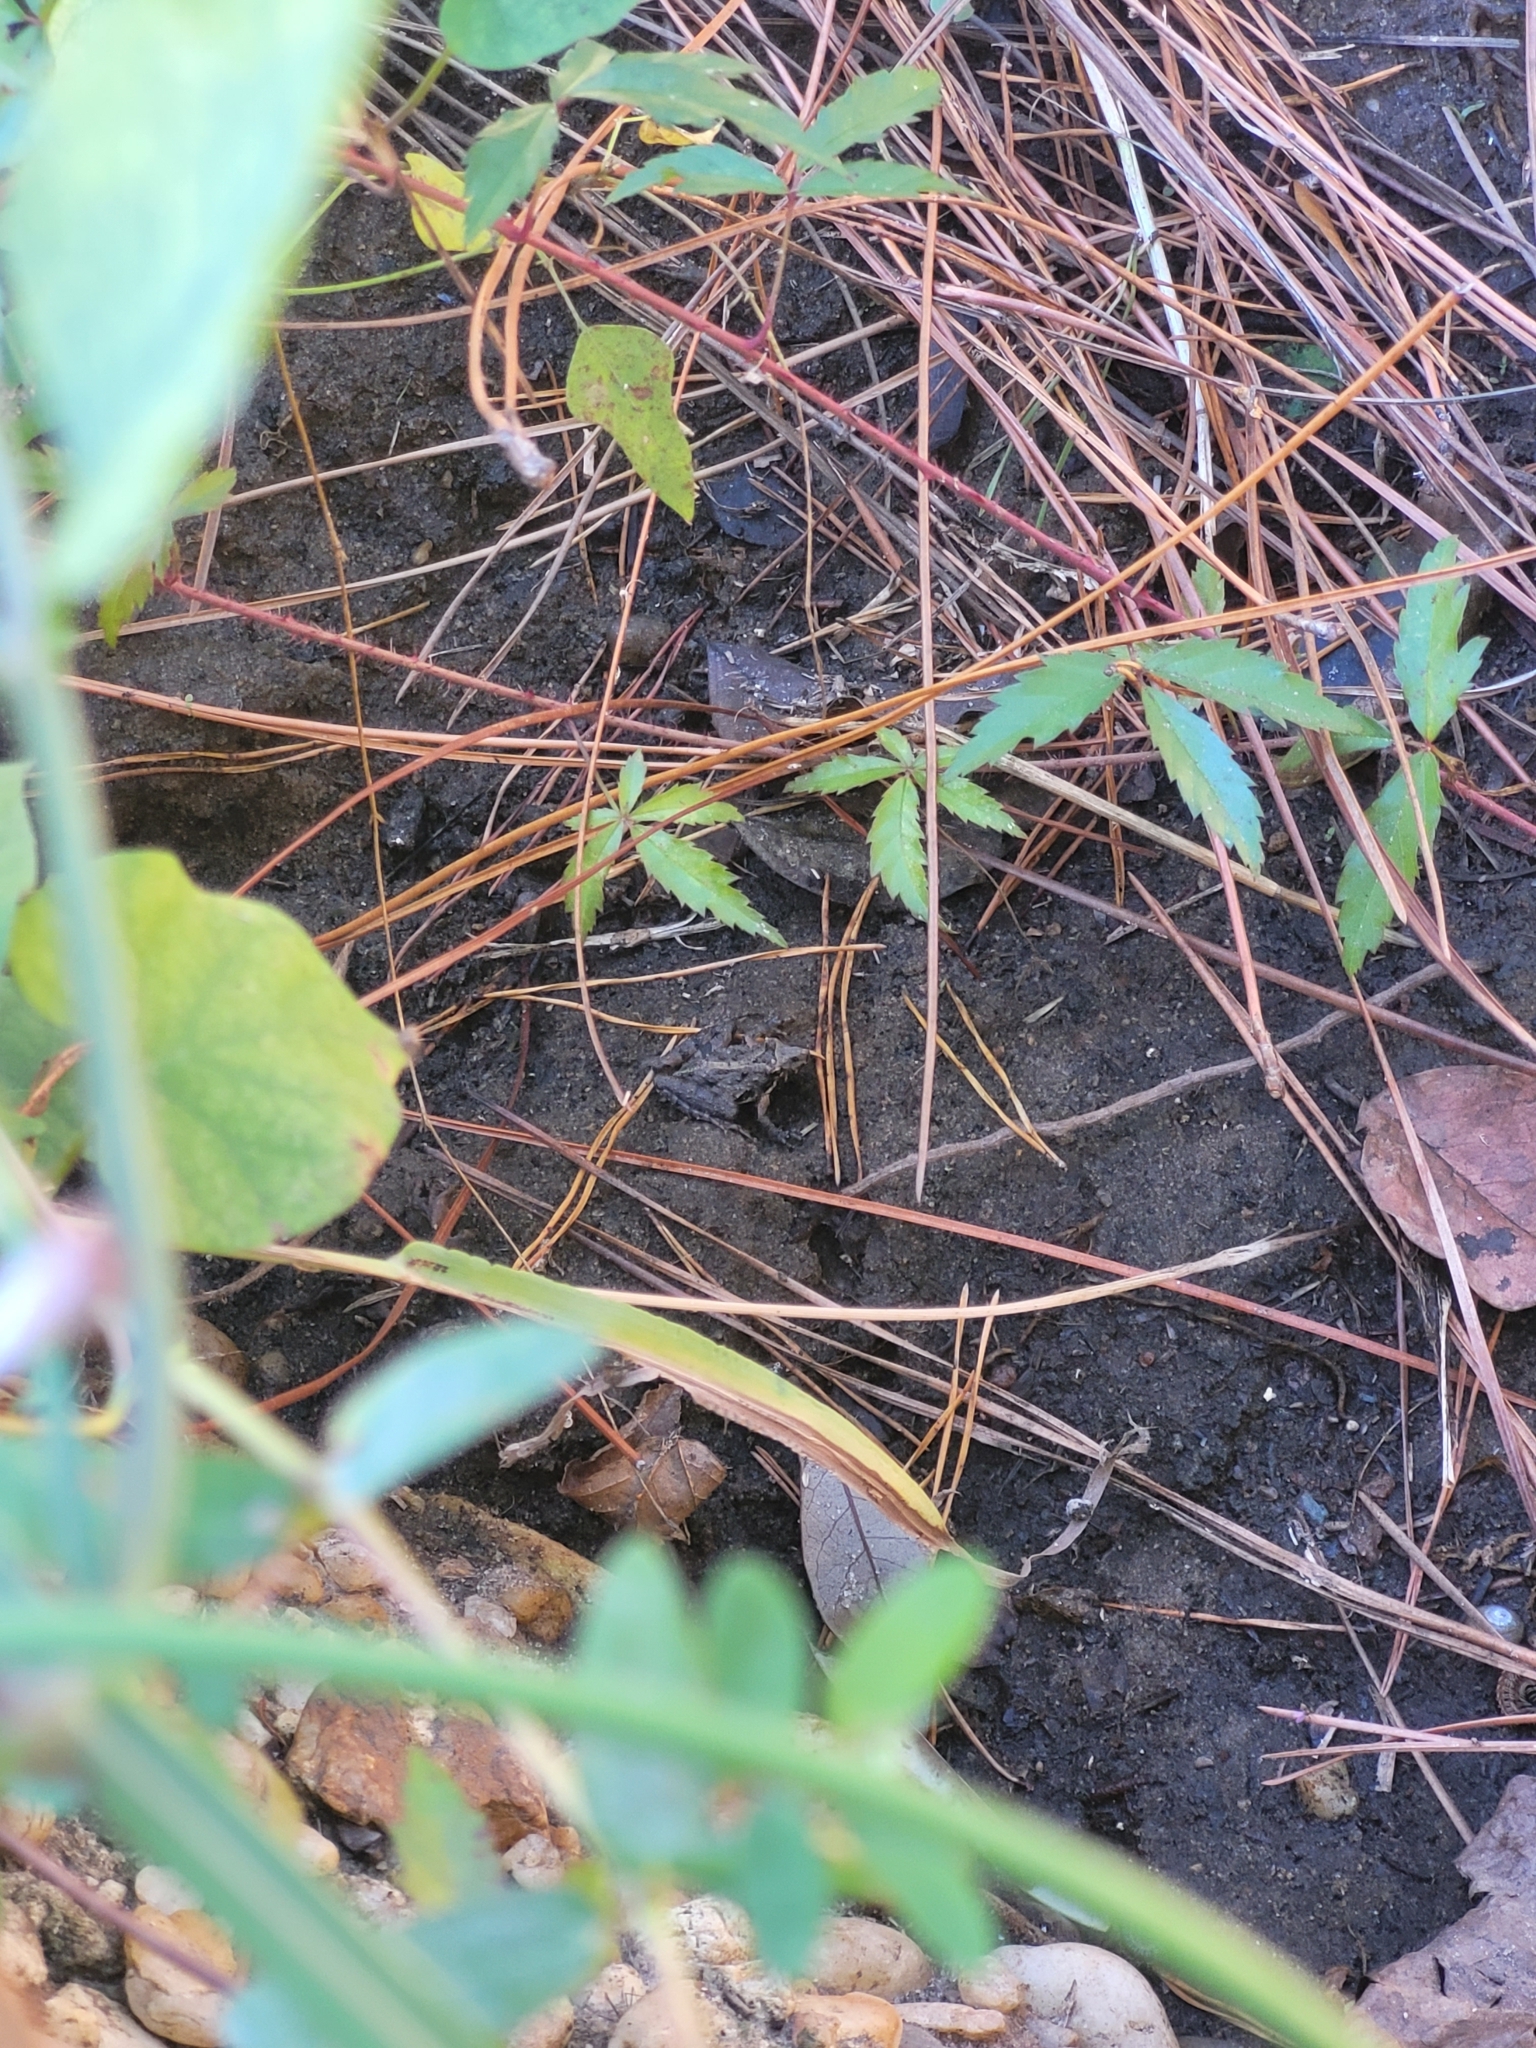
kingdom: Animalia
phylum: Chordata
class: Amphibia
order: Anura
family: Hylidae
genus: Acris
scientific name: Acris gryllus
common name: Southern cricket frog
